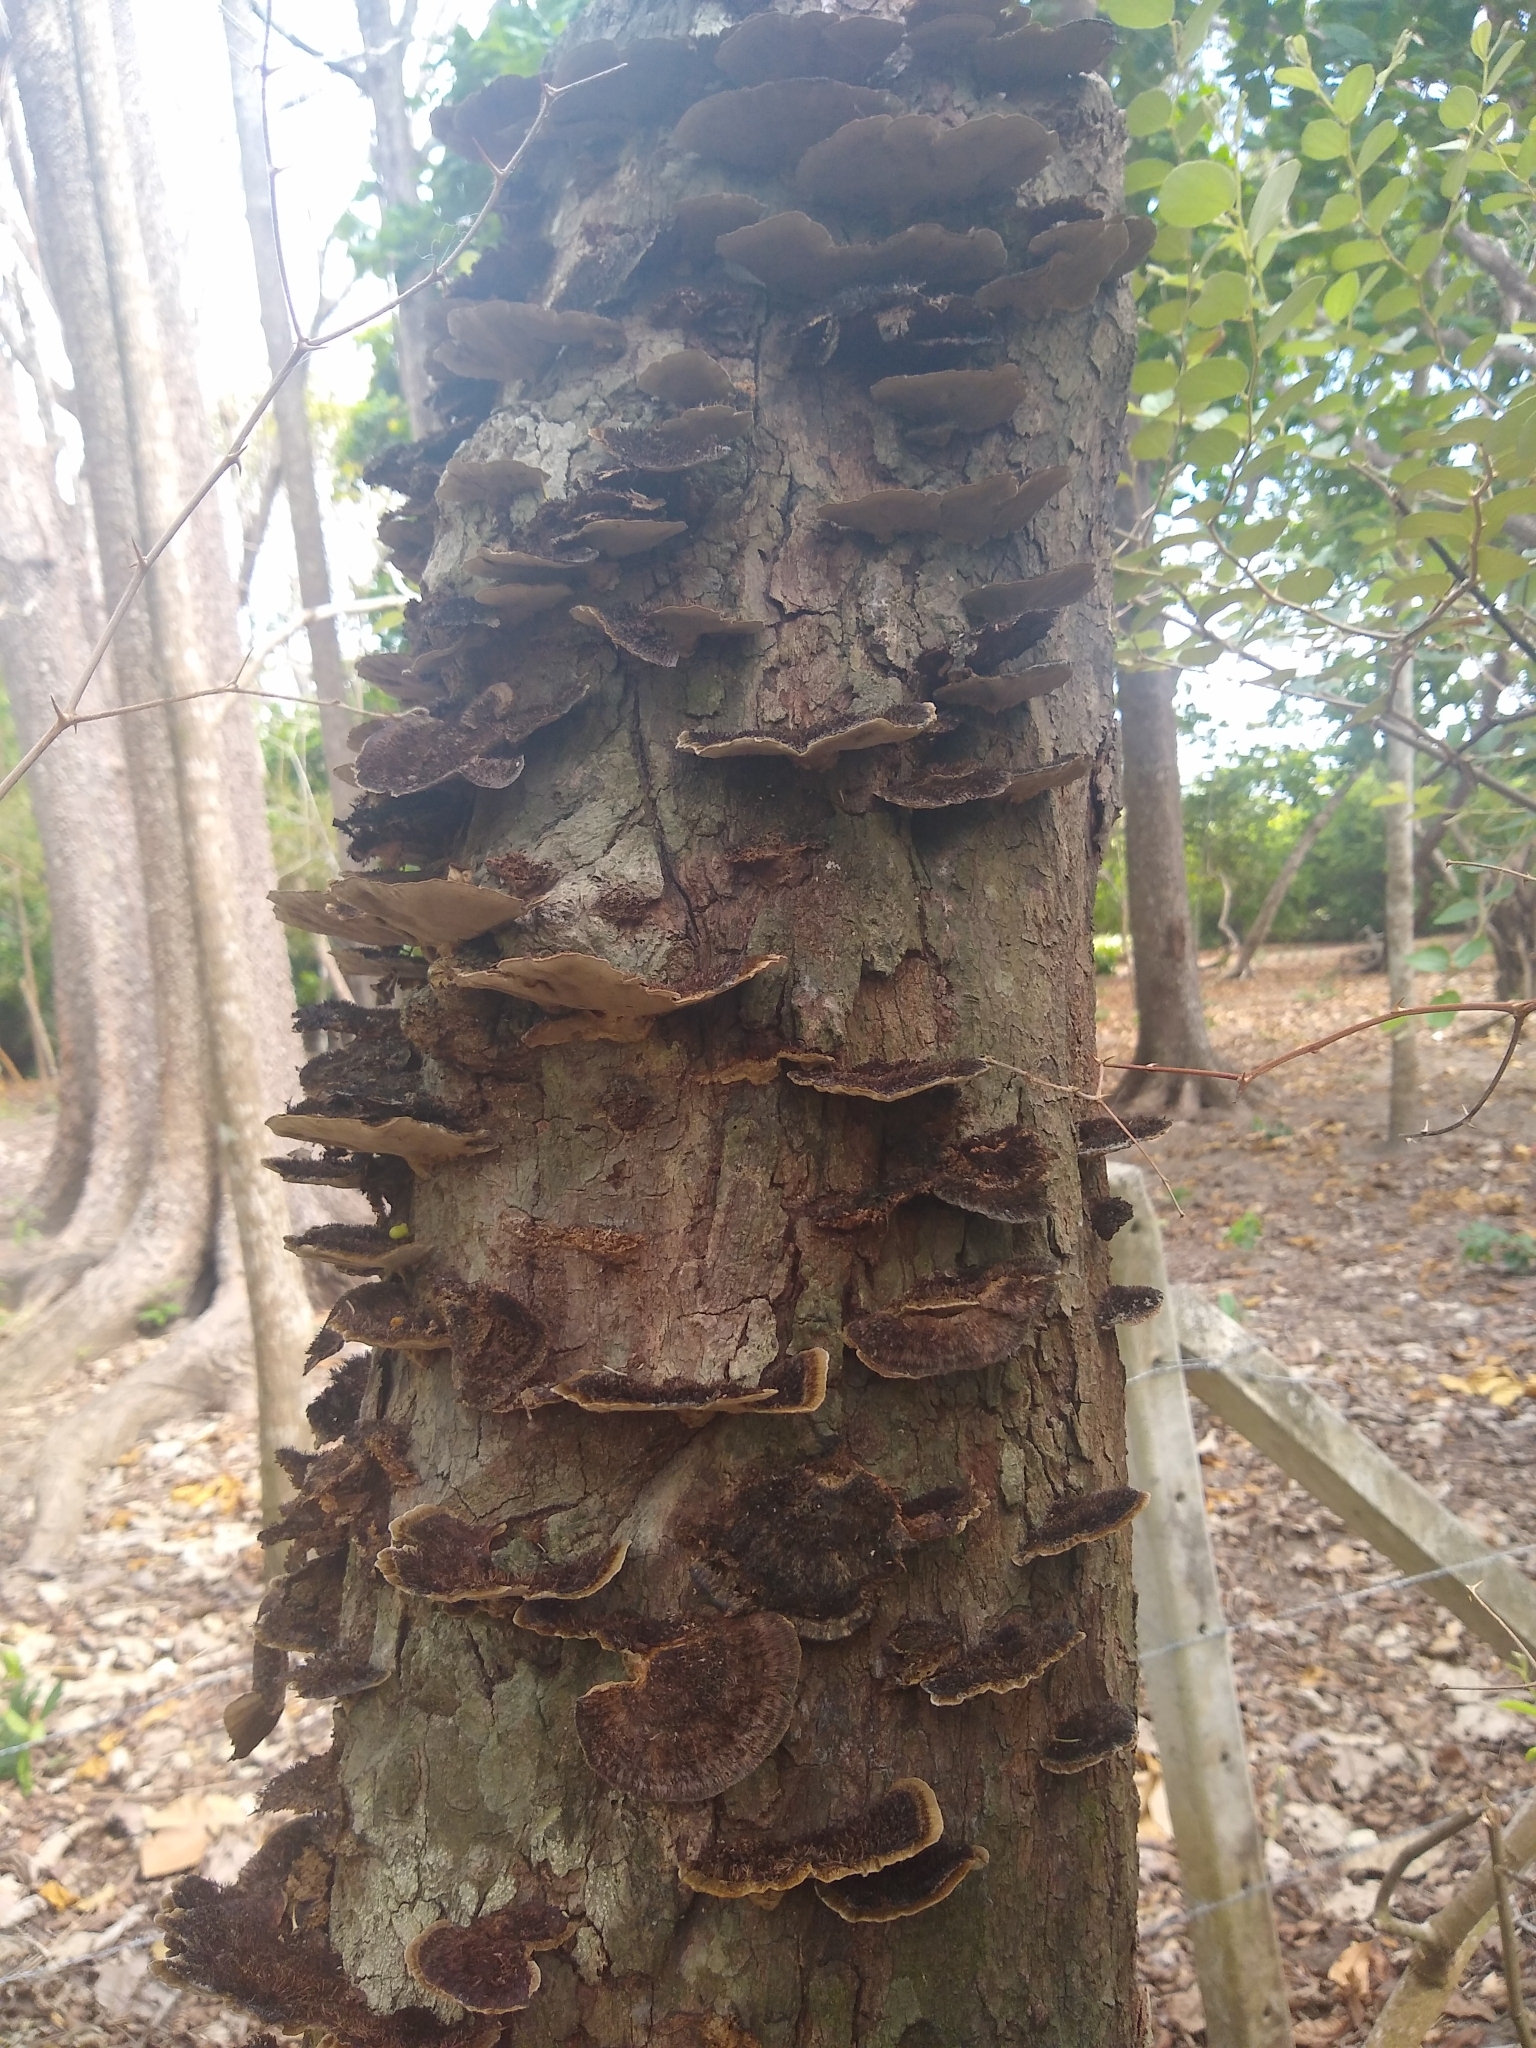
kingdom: Fungi
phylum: Basidiomycota
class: Agaricomycetes
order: Polyporales
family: Cerrenaceae
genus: Cerrena
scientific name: Cerrena hydnoides
